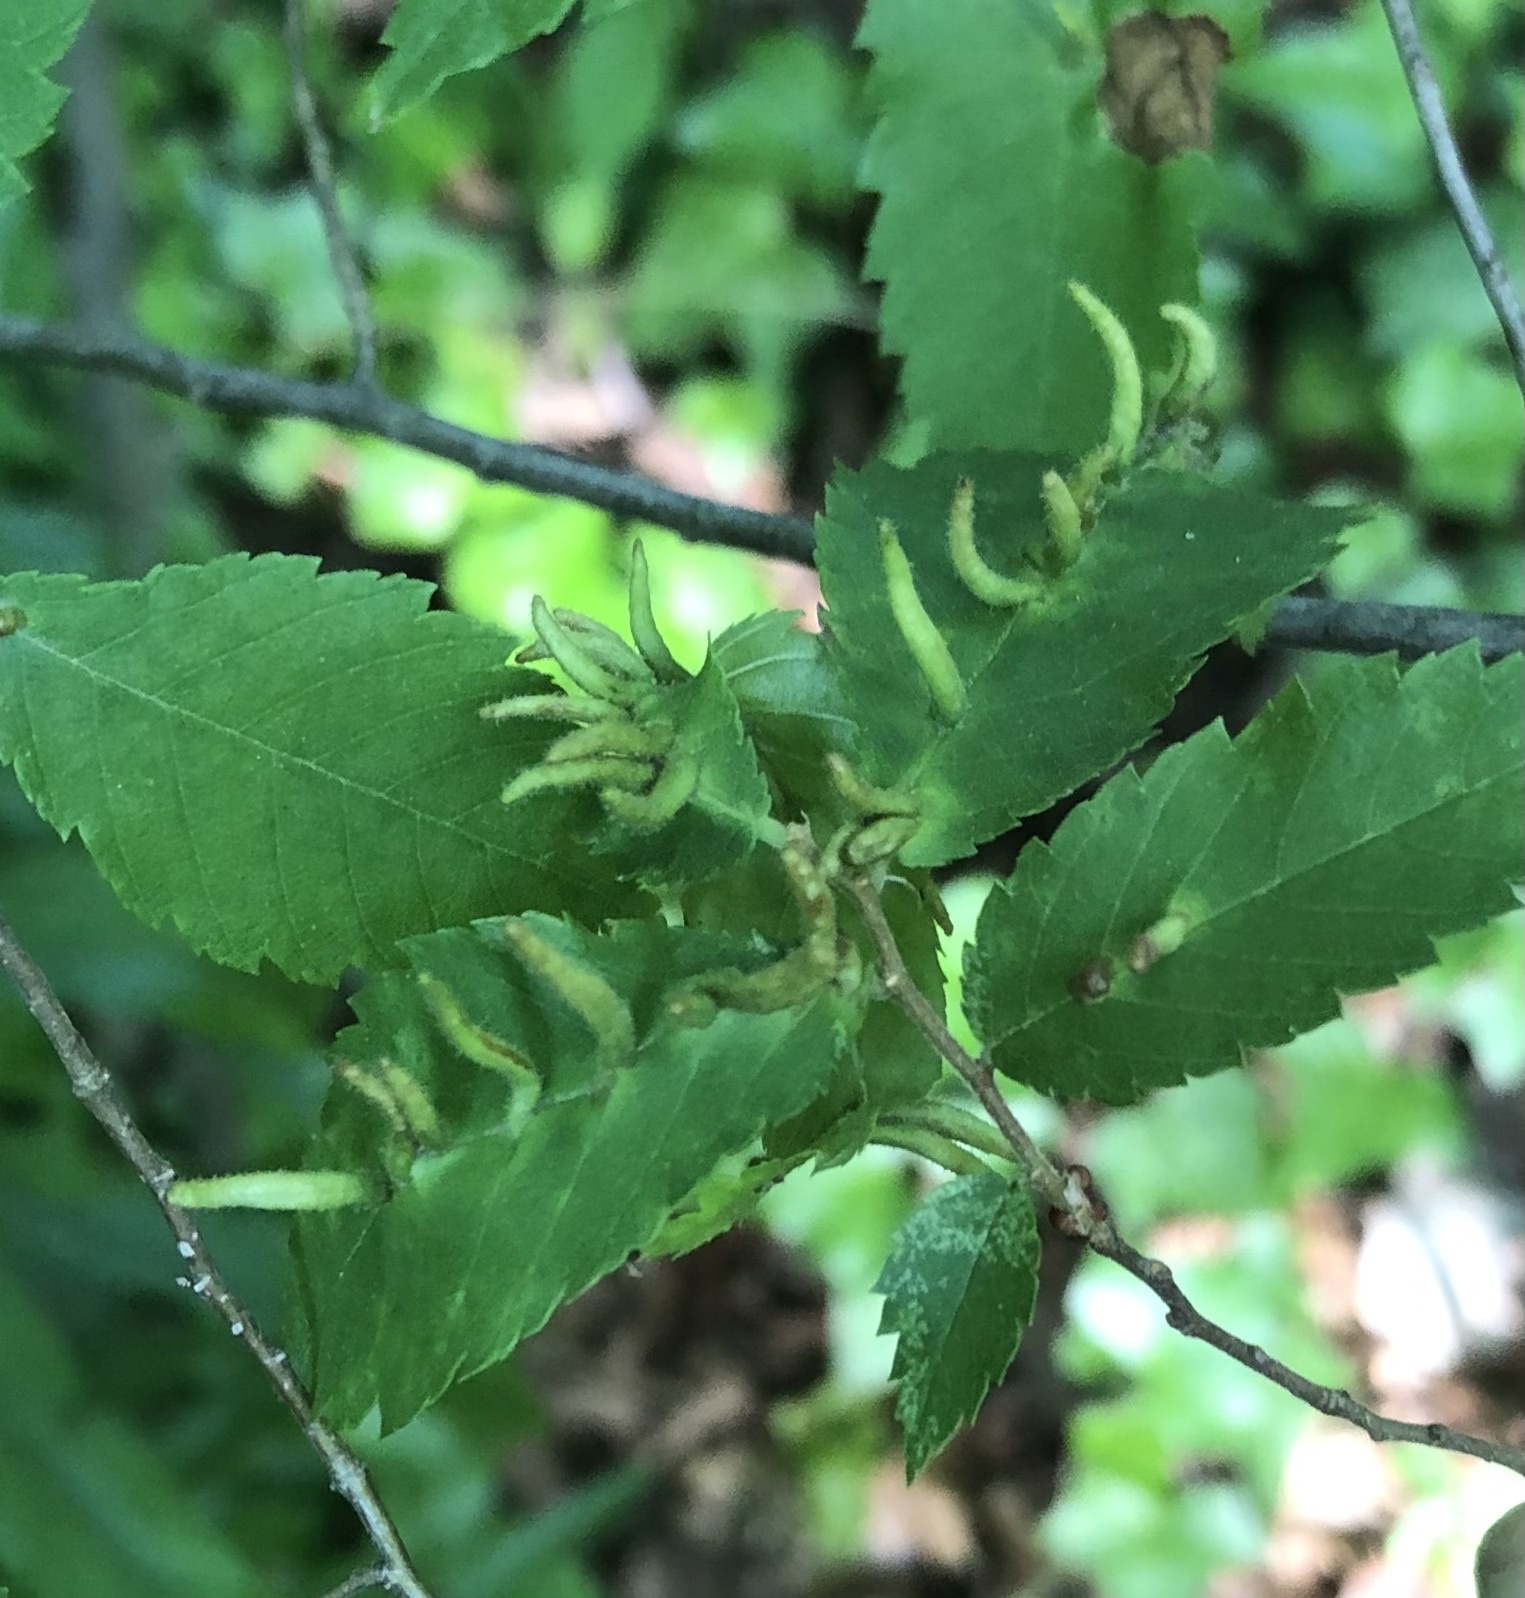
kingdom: Animalia
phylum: Arthropoda
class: Arachnida
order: Trombidiformes
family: Eriophyidae
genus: Aceria
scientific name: Aceria
